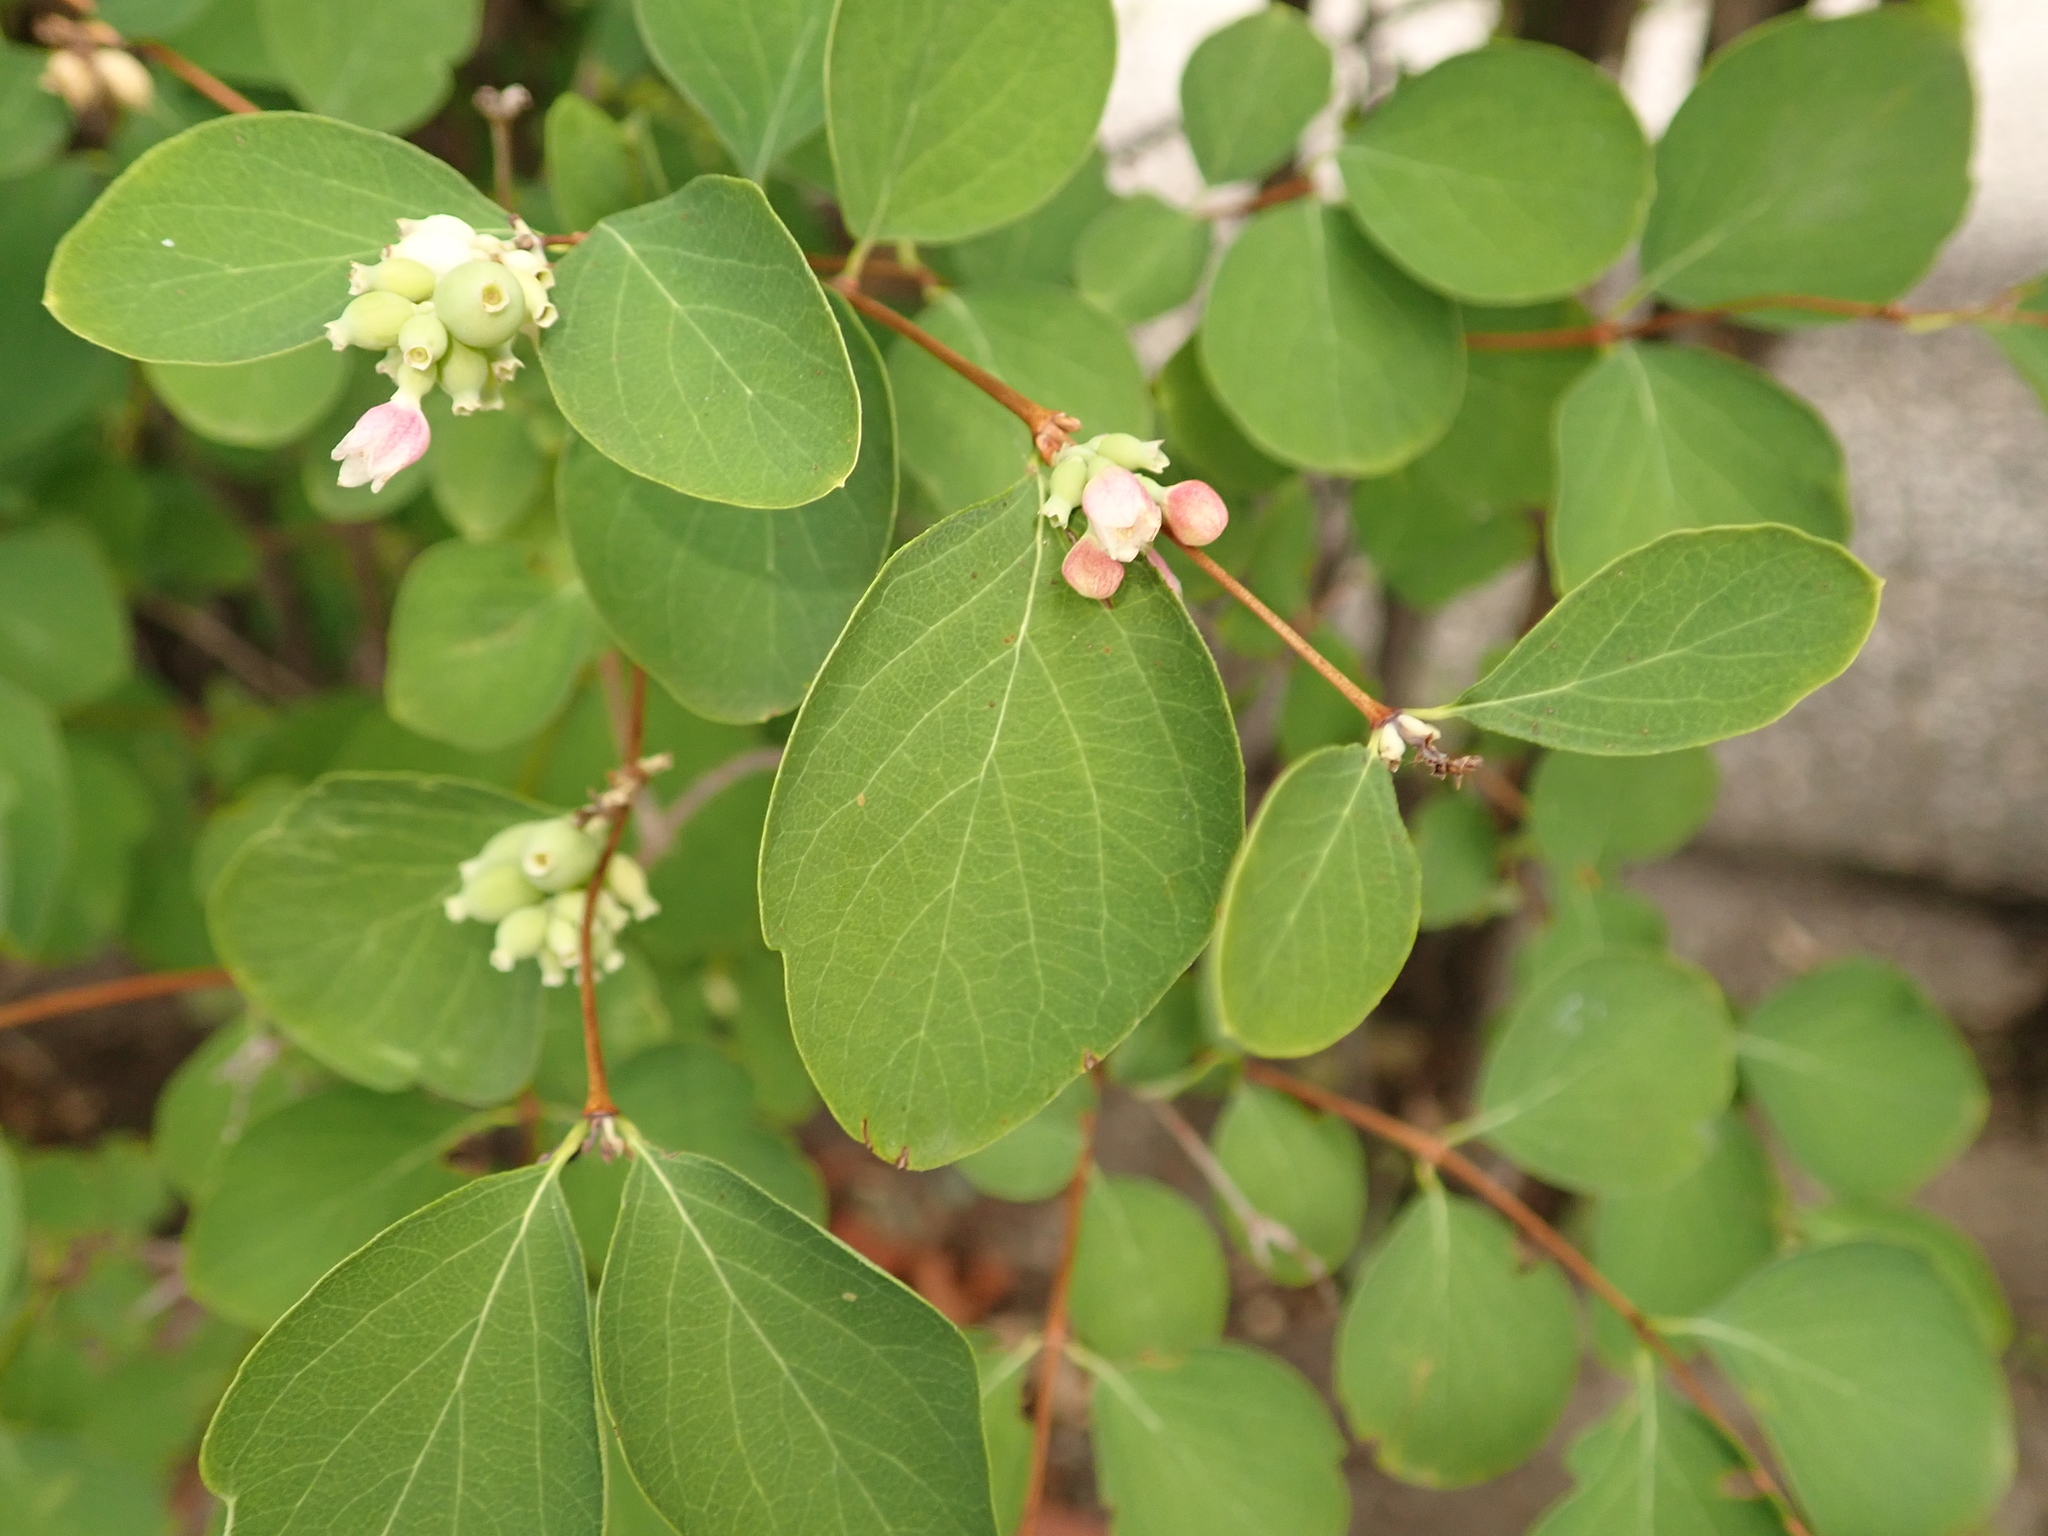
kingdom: Plantae
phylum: Tracheophyta
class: Magnoliopsida
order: Dipsacales
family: Caprifoliaceae
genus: Symphoricarpos
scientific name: Symphoricarpos albus
